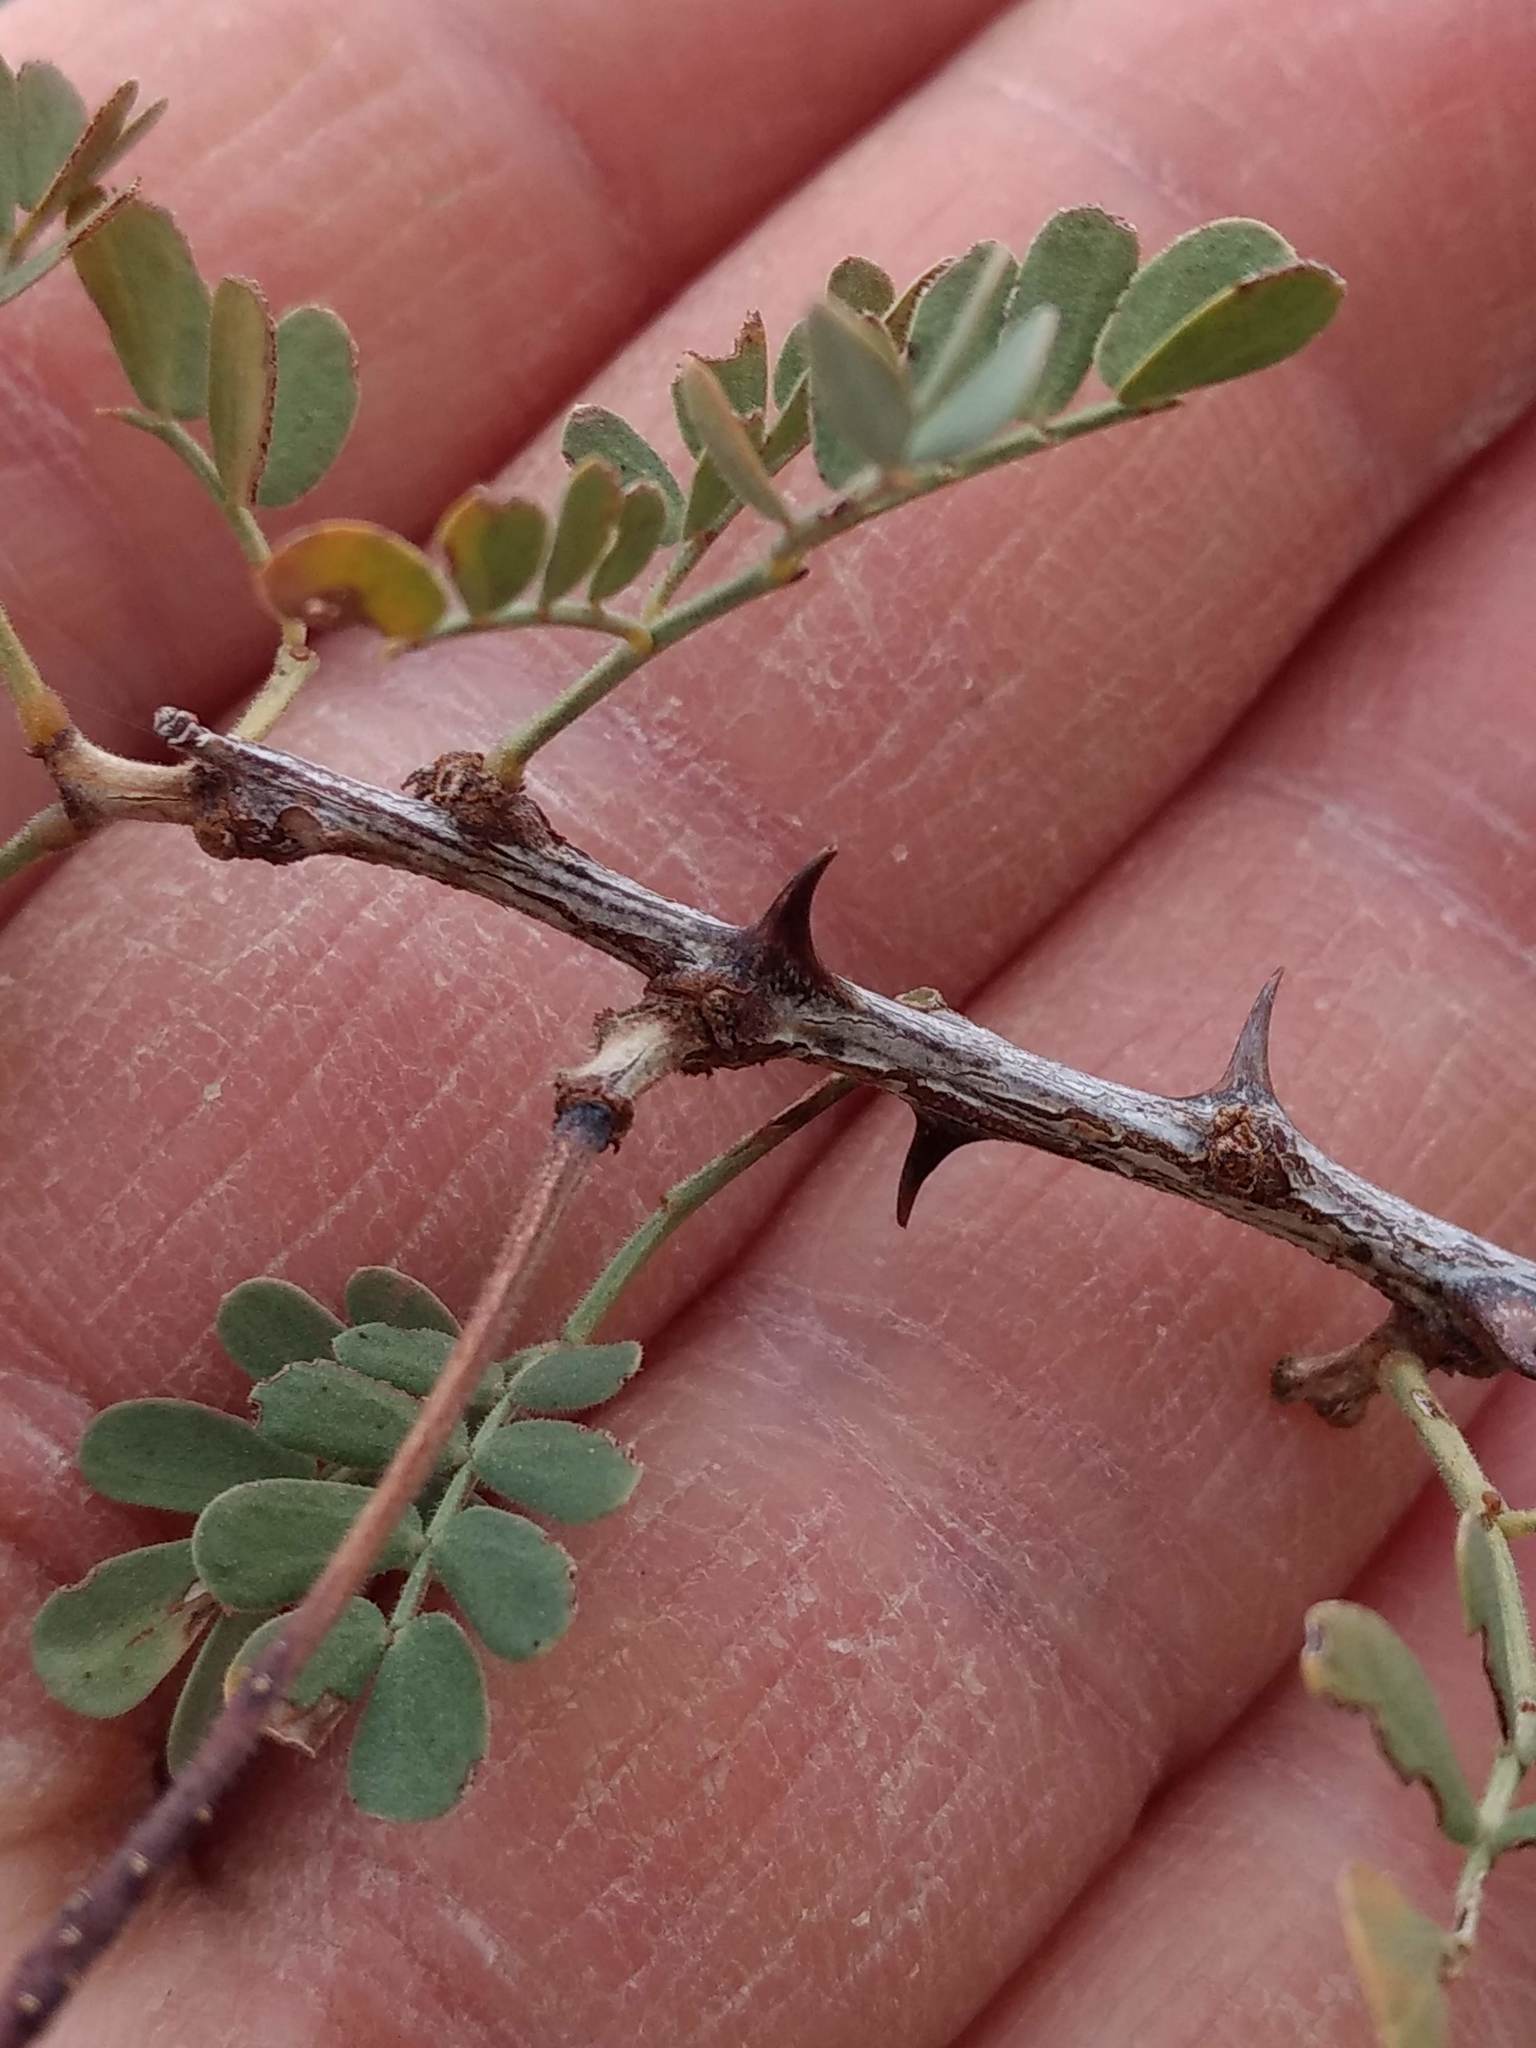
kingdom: Plantae
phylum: Tracheophyta
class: Magnoliopsida
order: Fabales
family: Fabaceae
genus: Senegalia
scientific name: Senegalia greggii
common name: Texas-mimosa
